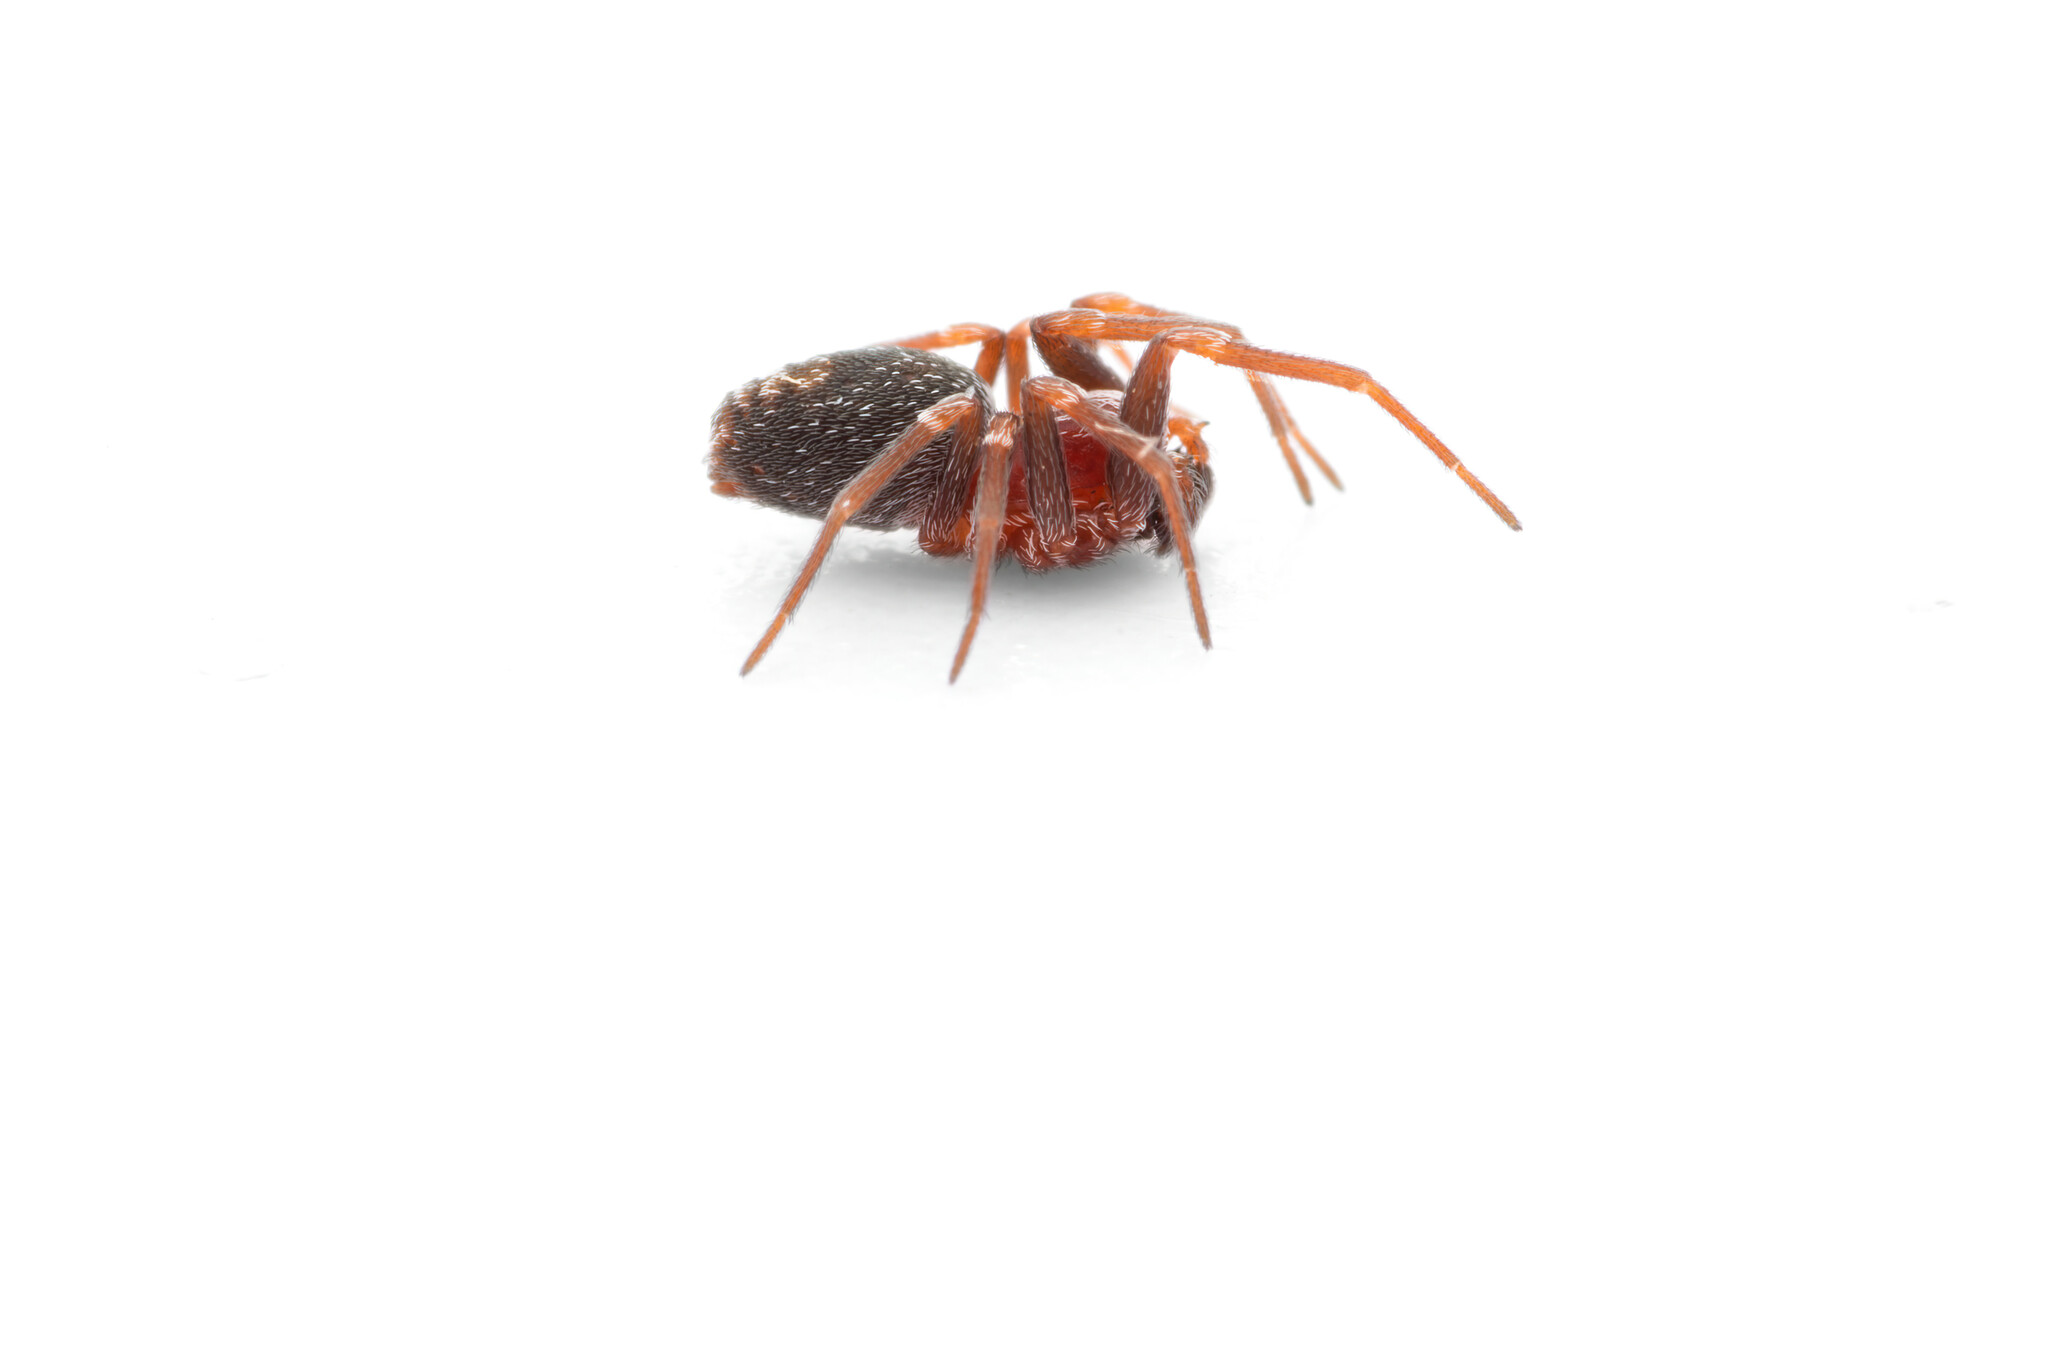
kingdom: Animalia
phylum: Arthropoda
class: Arachnida
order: Araneae
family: Dictynidae
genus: Marilynia
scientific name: Marilynia bicolor
